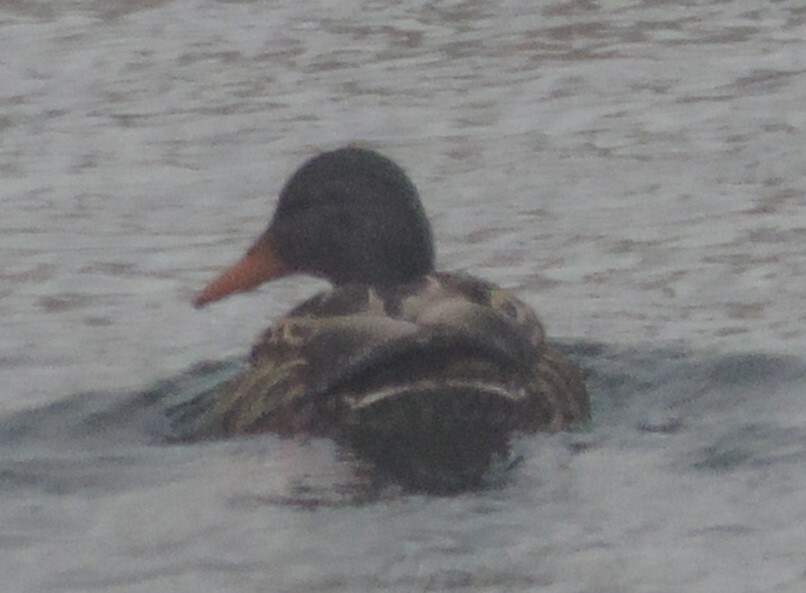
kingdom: Animalia
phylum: Chordata
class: Aves
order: Anseriformes
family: Anatidae
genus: Anas
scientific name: Anas platyrhynchos
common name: Mallard
